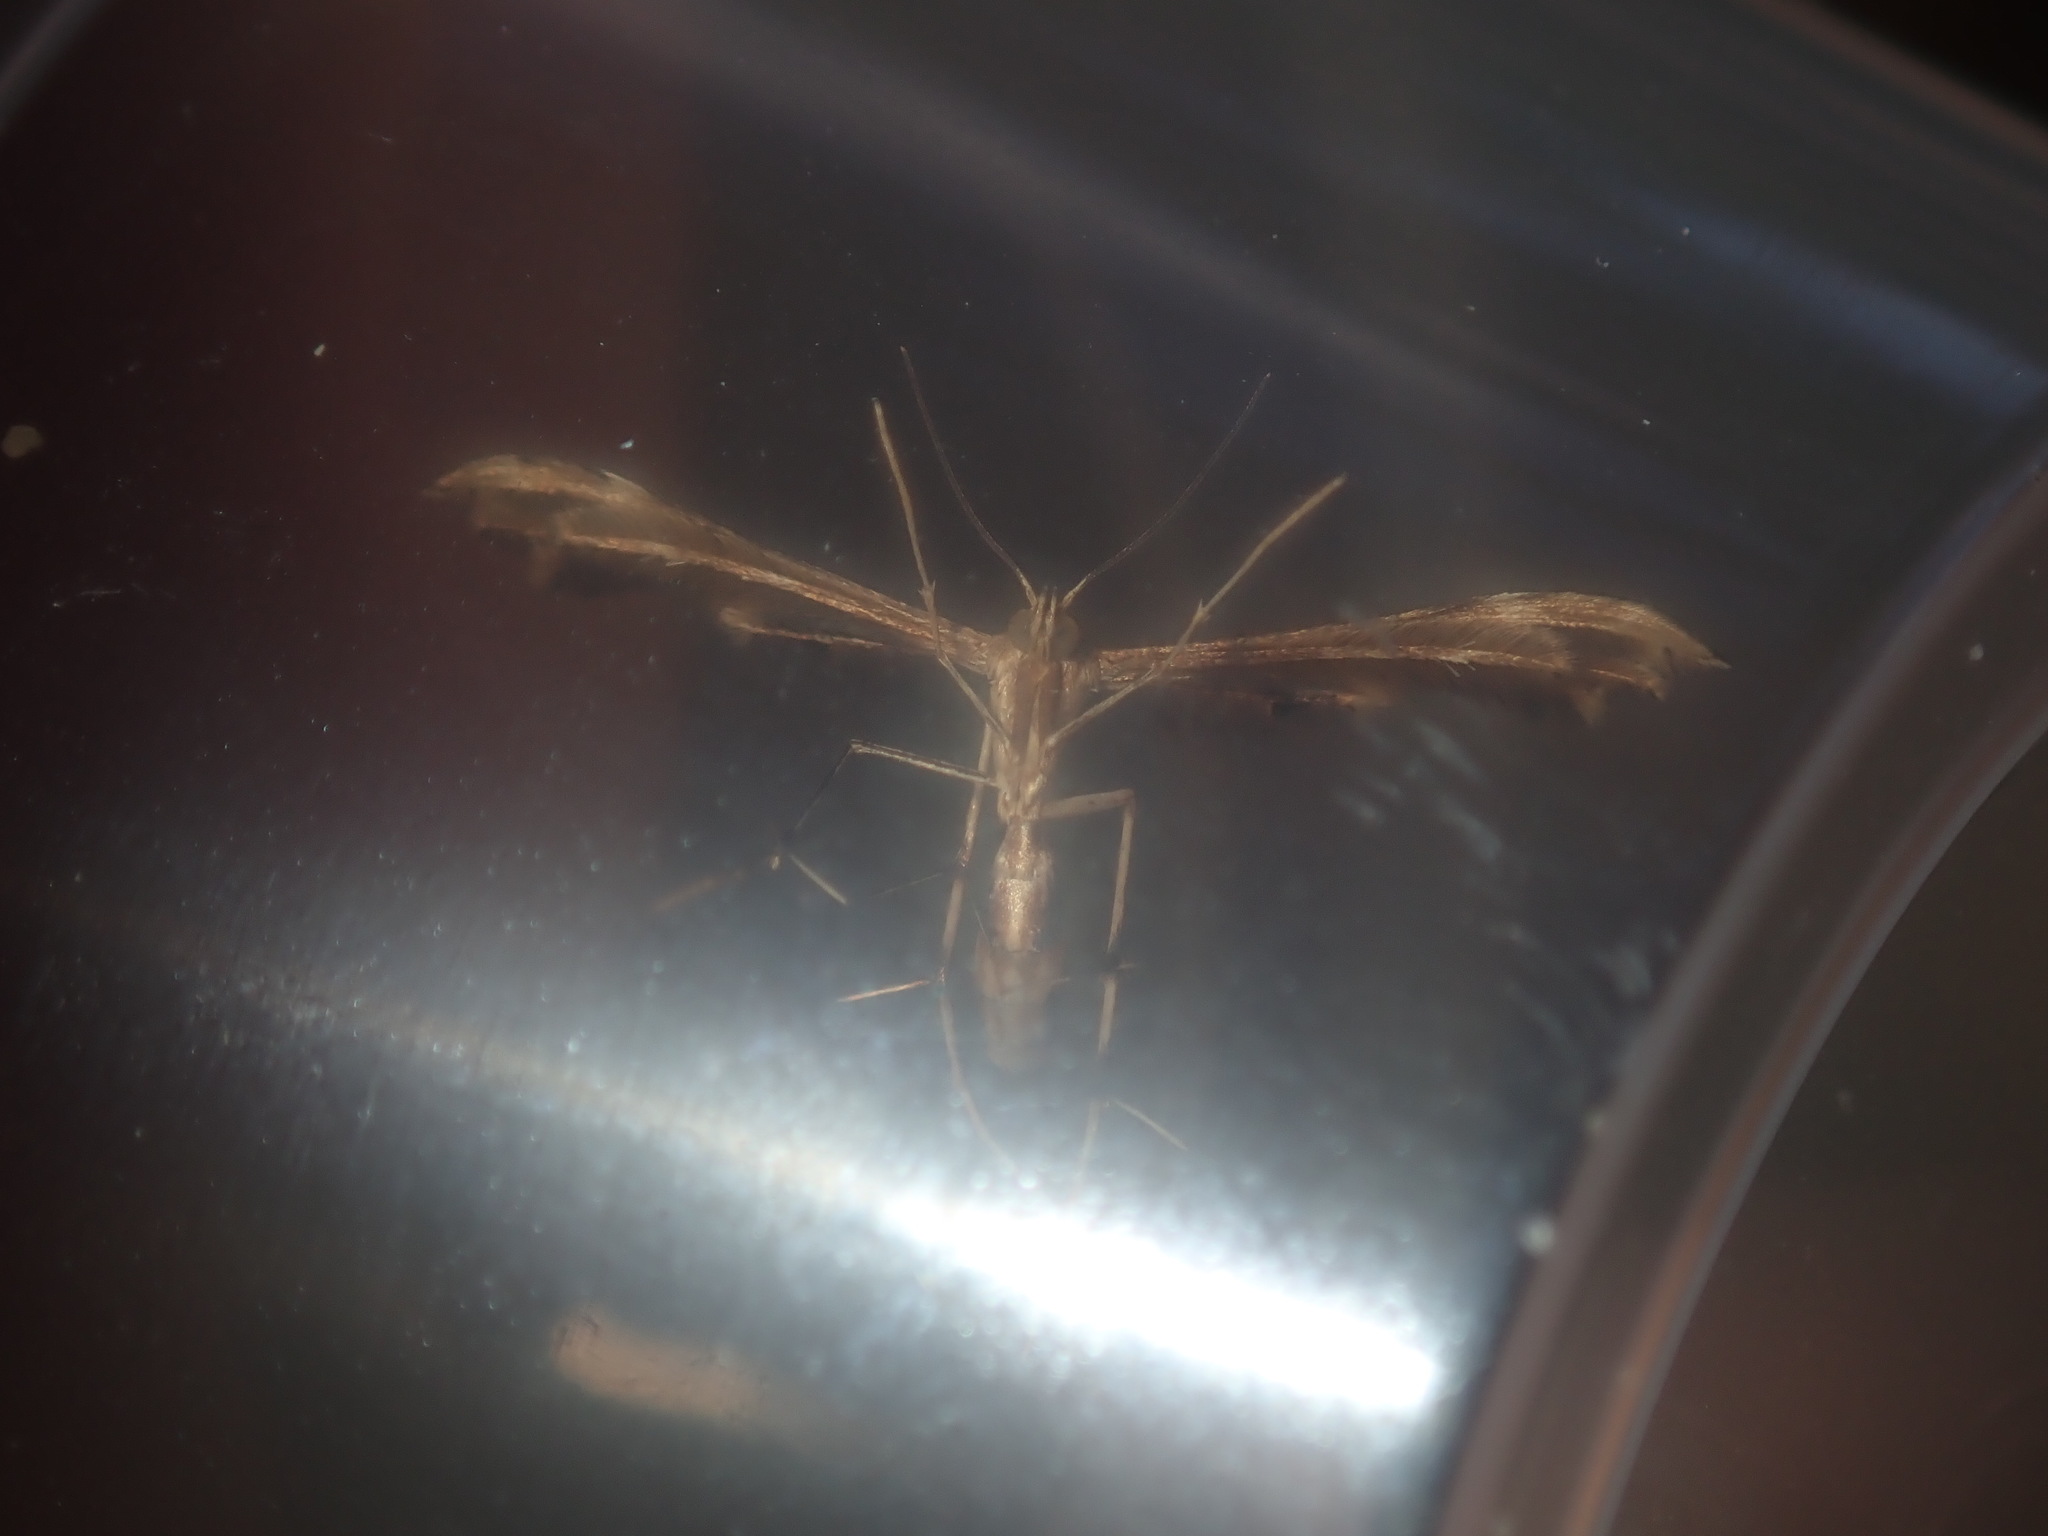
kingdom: Animalia
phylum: Arthropoda
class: Insecta
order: Lepidoptera
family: Pterophoridae
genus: Sphenarches
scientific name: Sphenarches anisodactylus
